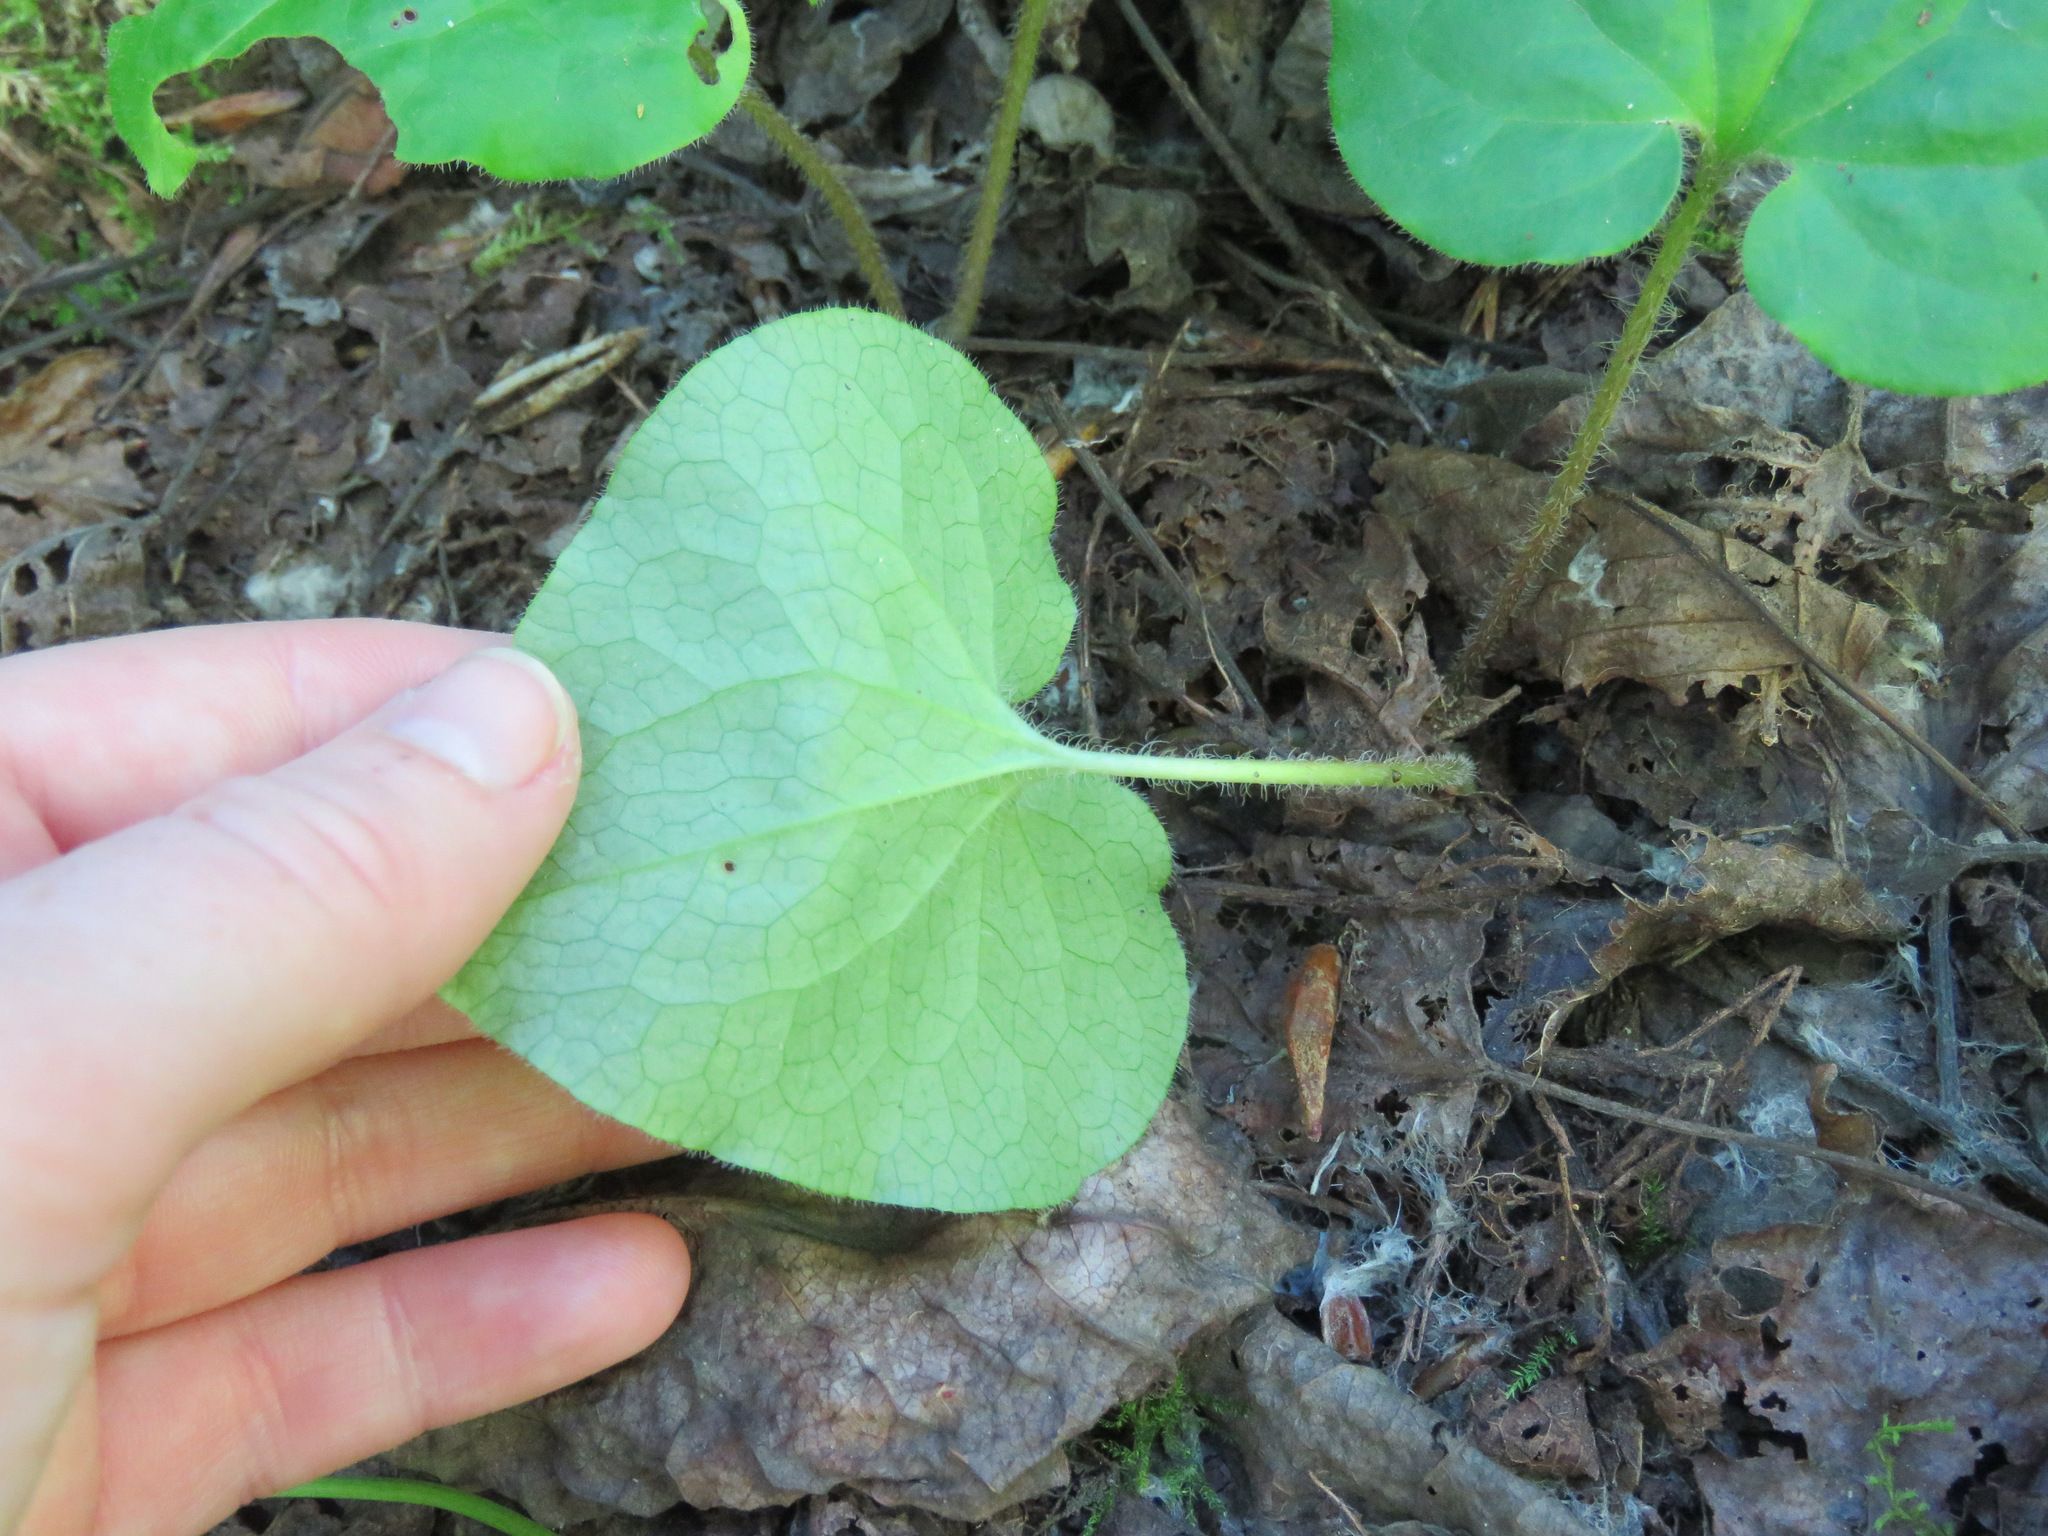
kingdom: Plantae
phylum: Tracheophyta
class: Magnoliopsida
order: Piperales
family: Aristolochiaceae
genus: Asarum
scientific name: Asarum caudatum
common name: Wild ginger
